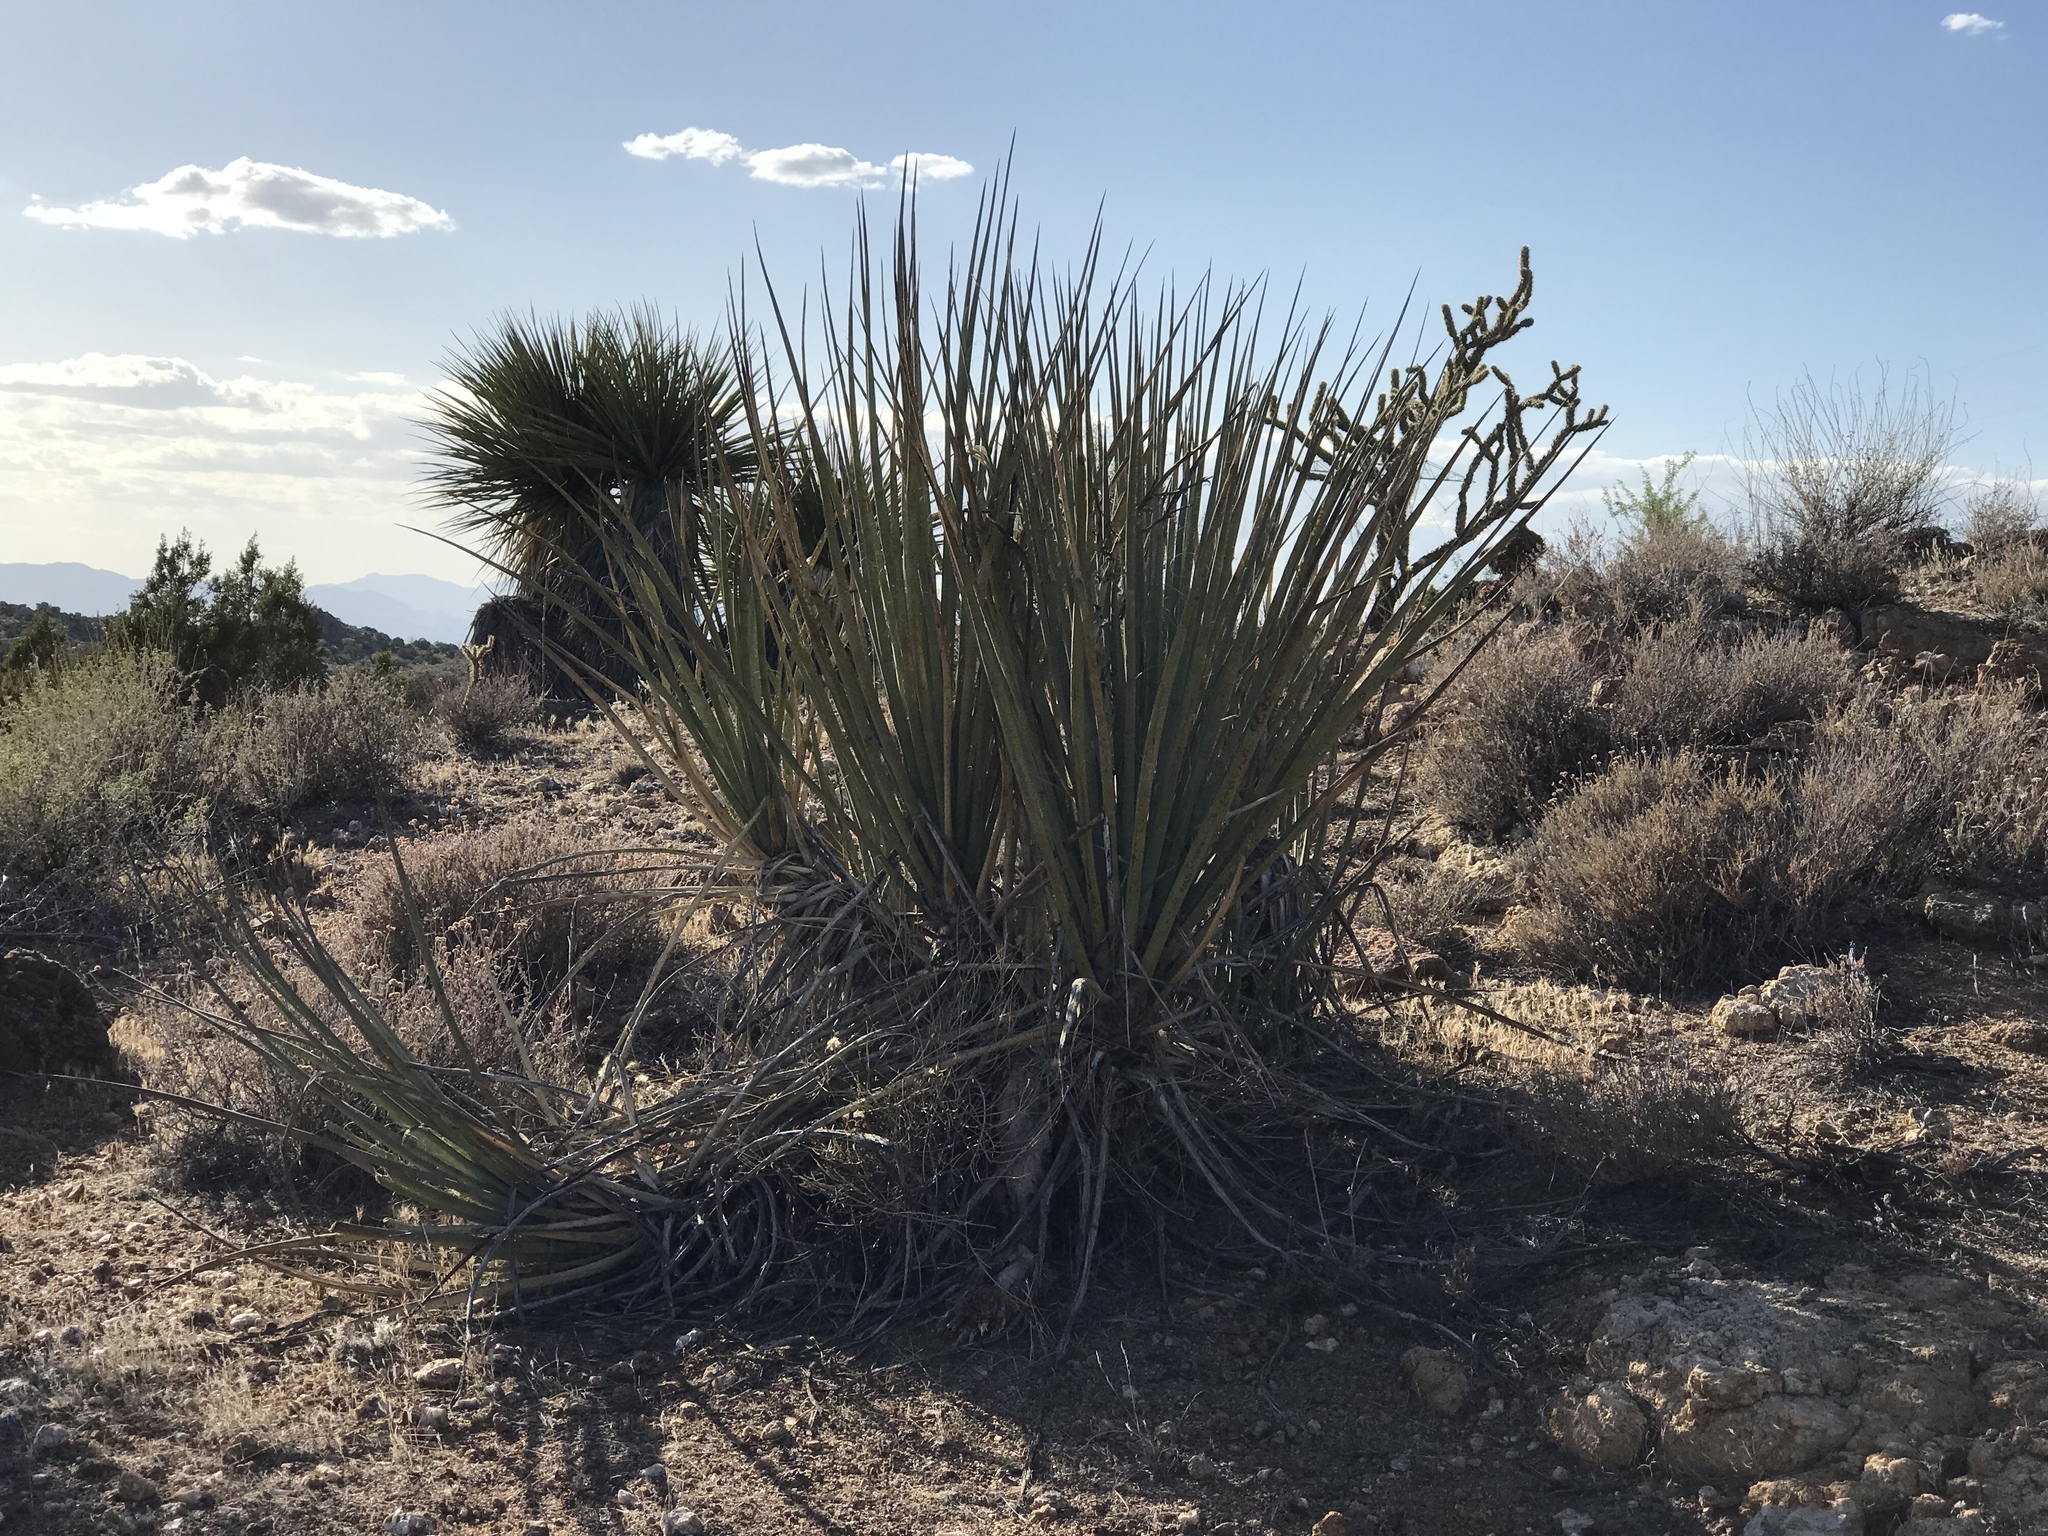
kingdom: Plantae
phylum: Tracheophyta
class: Liliopsida
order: Asparagales
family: Asparagaceae
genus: Yucca
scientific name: Yucca baccata
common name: Banana yucca
